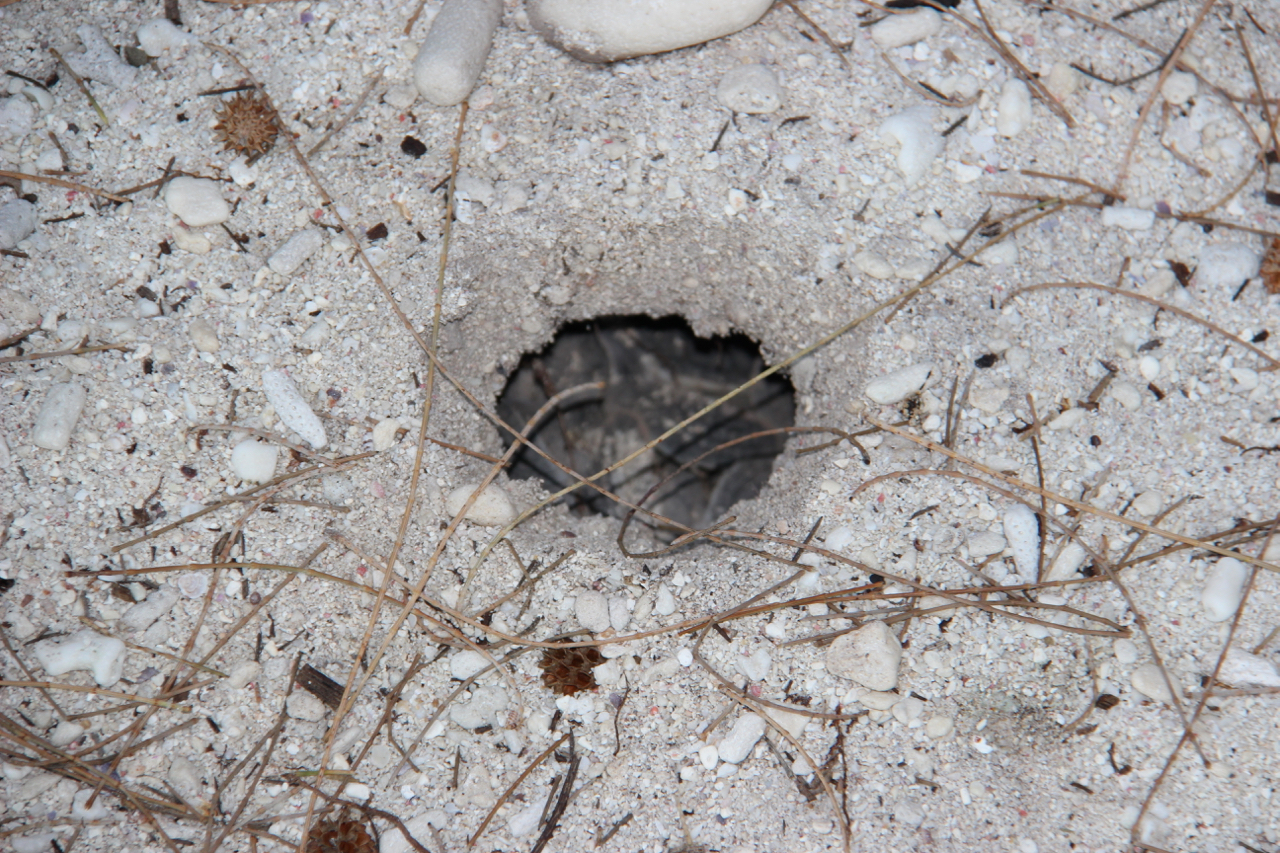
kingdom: Animalia
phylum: Chordata
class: Testudines
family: Cheloniidae
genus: Chelonia
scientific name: Chelonia mydas
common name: Green turtle
